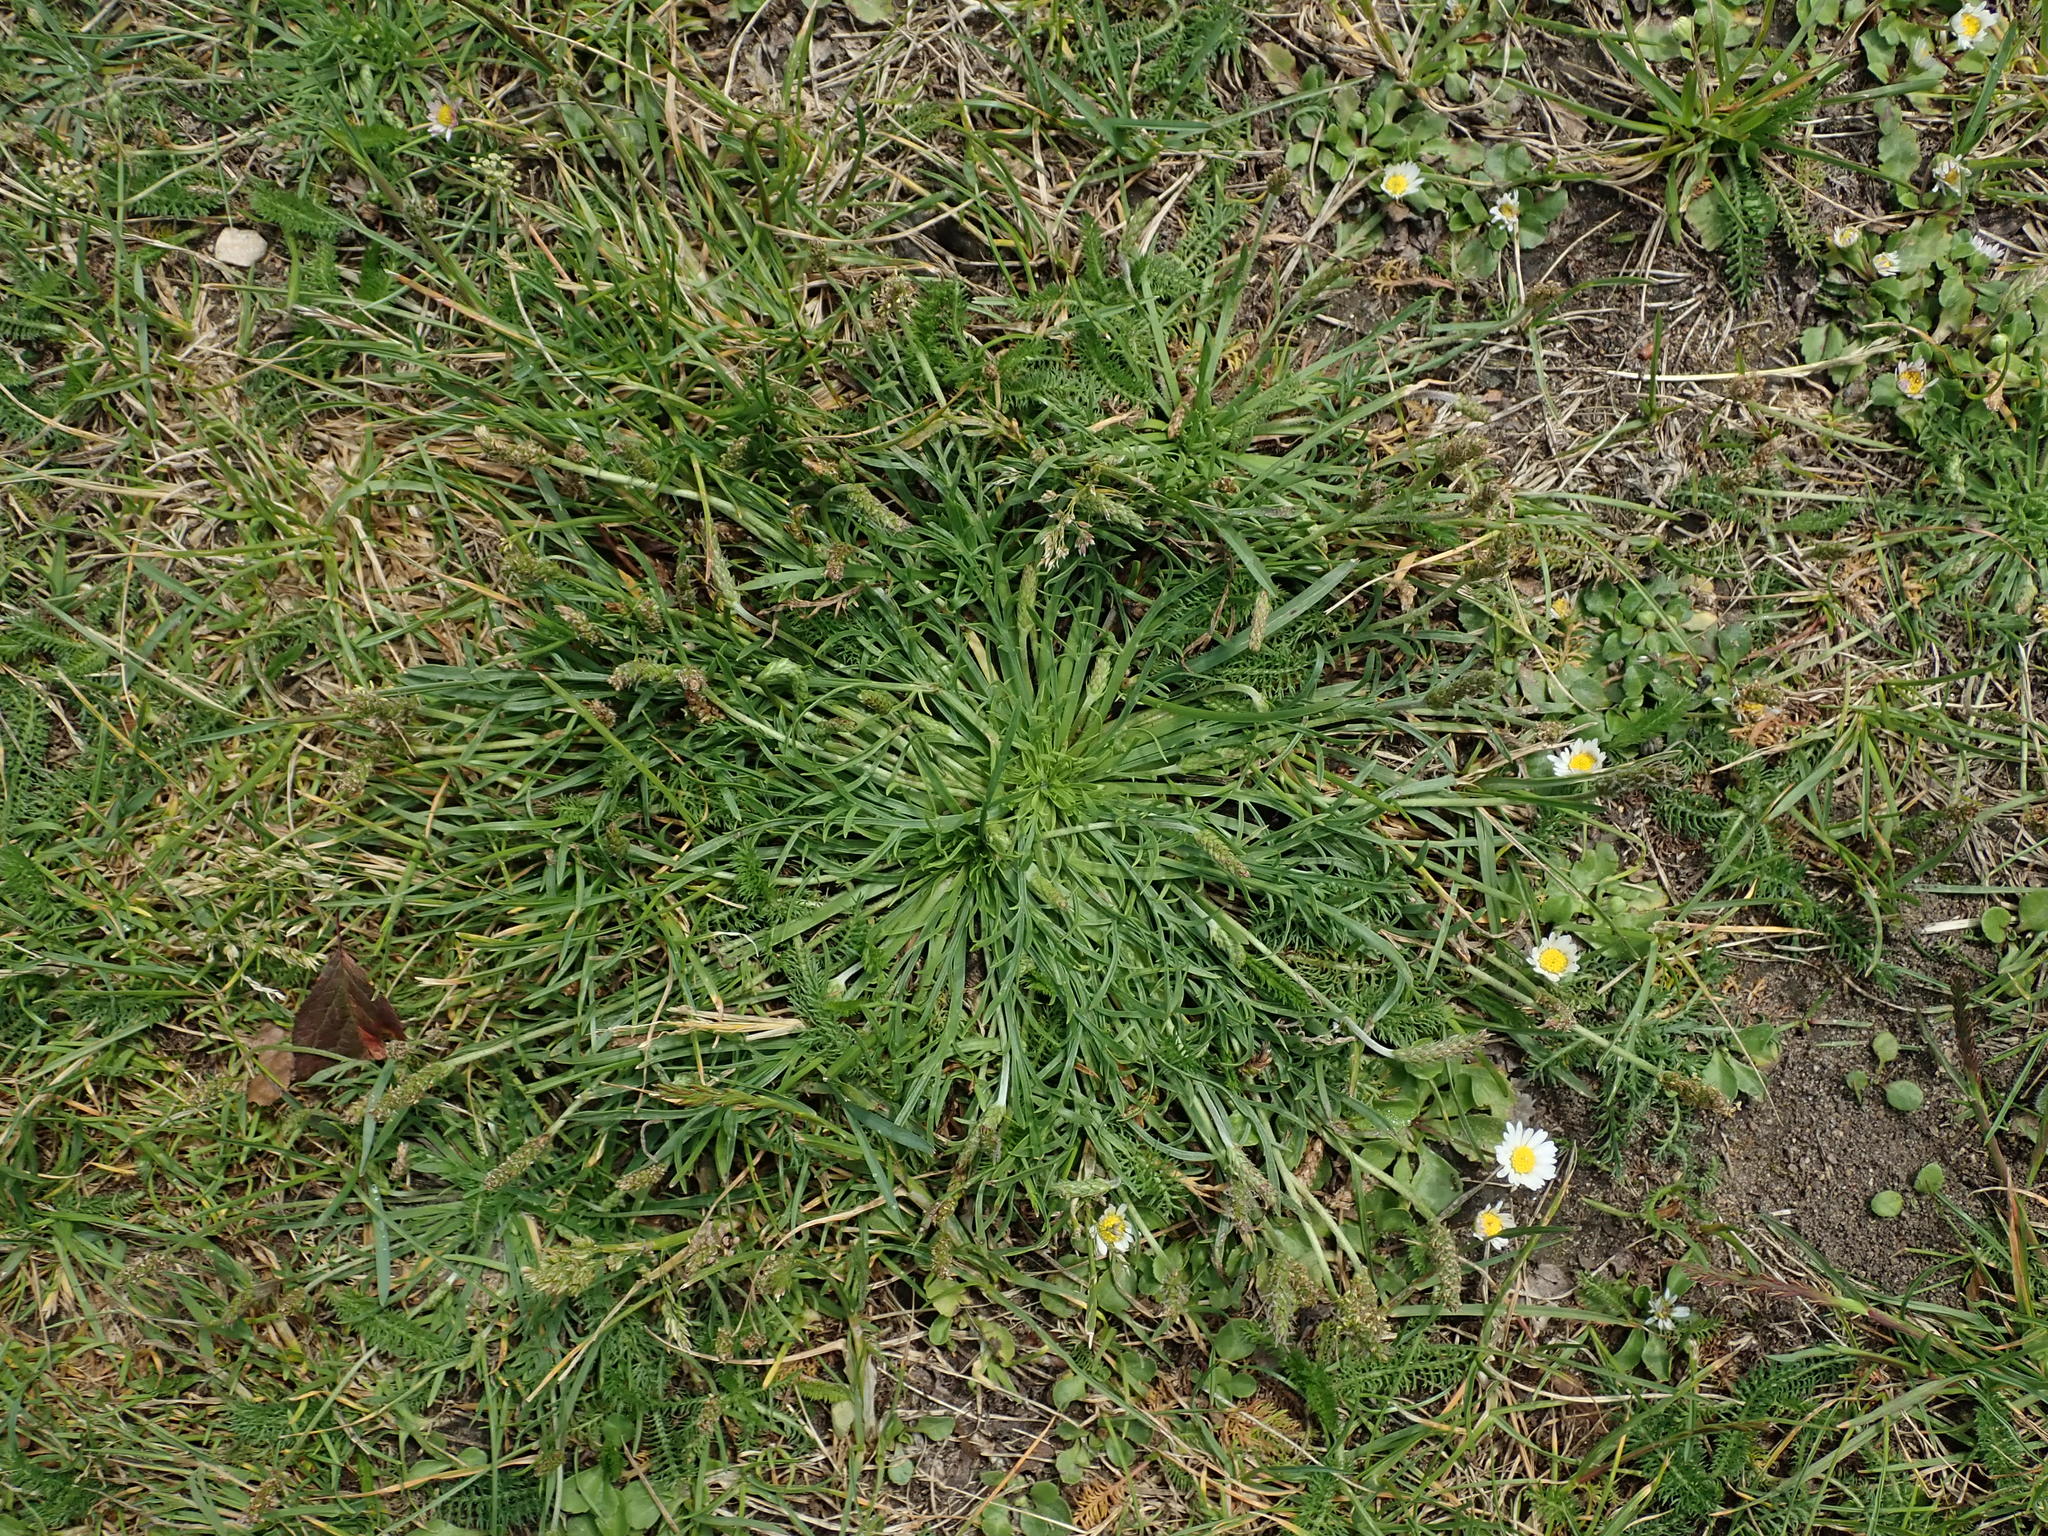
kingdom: Plantae
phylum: Tracheophyta
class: Magnoliopsida
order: Lamiales
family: Plantaginaceae
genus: Plantago
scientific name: Plantago coronopus
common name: Buck's-horn plantain
